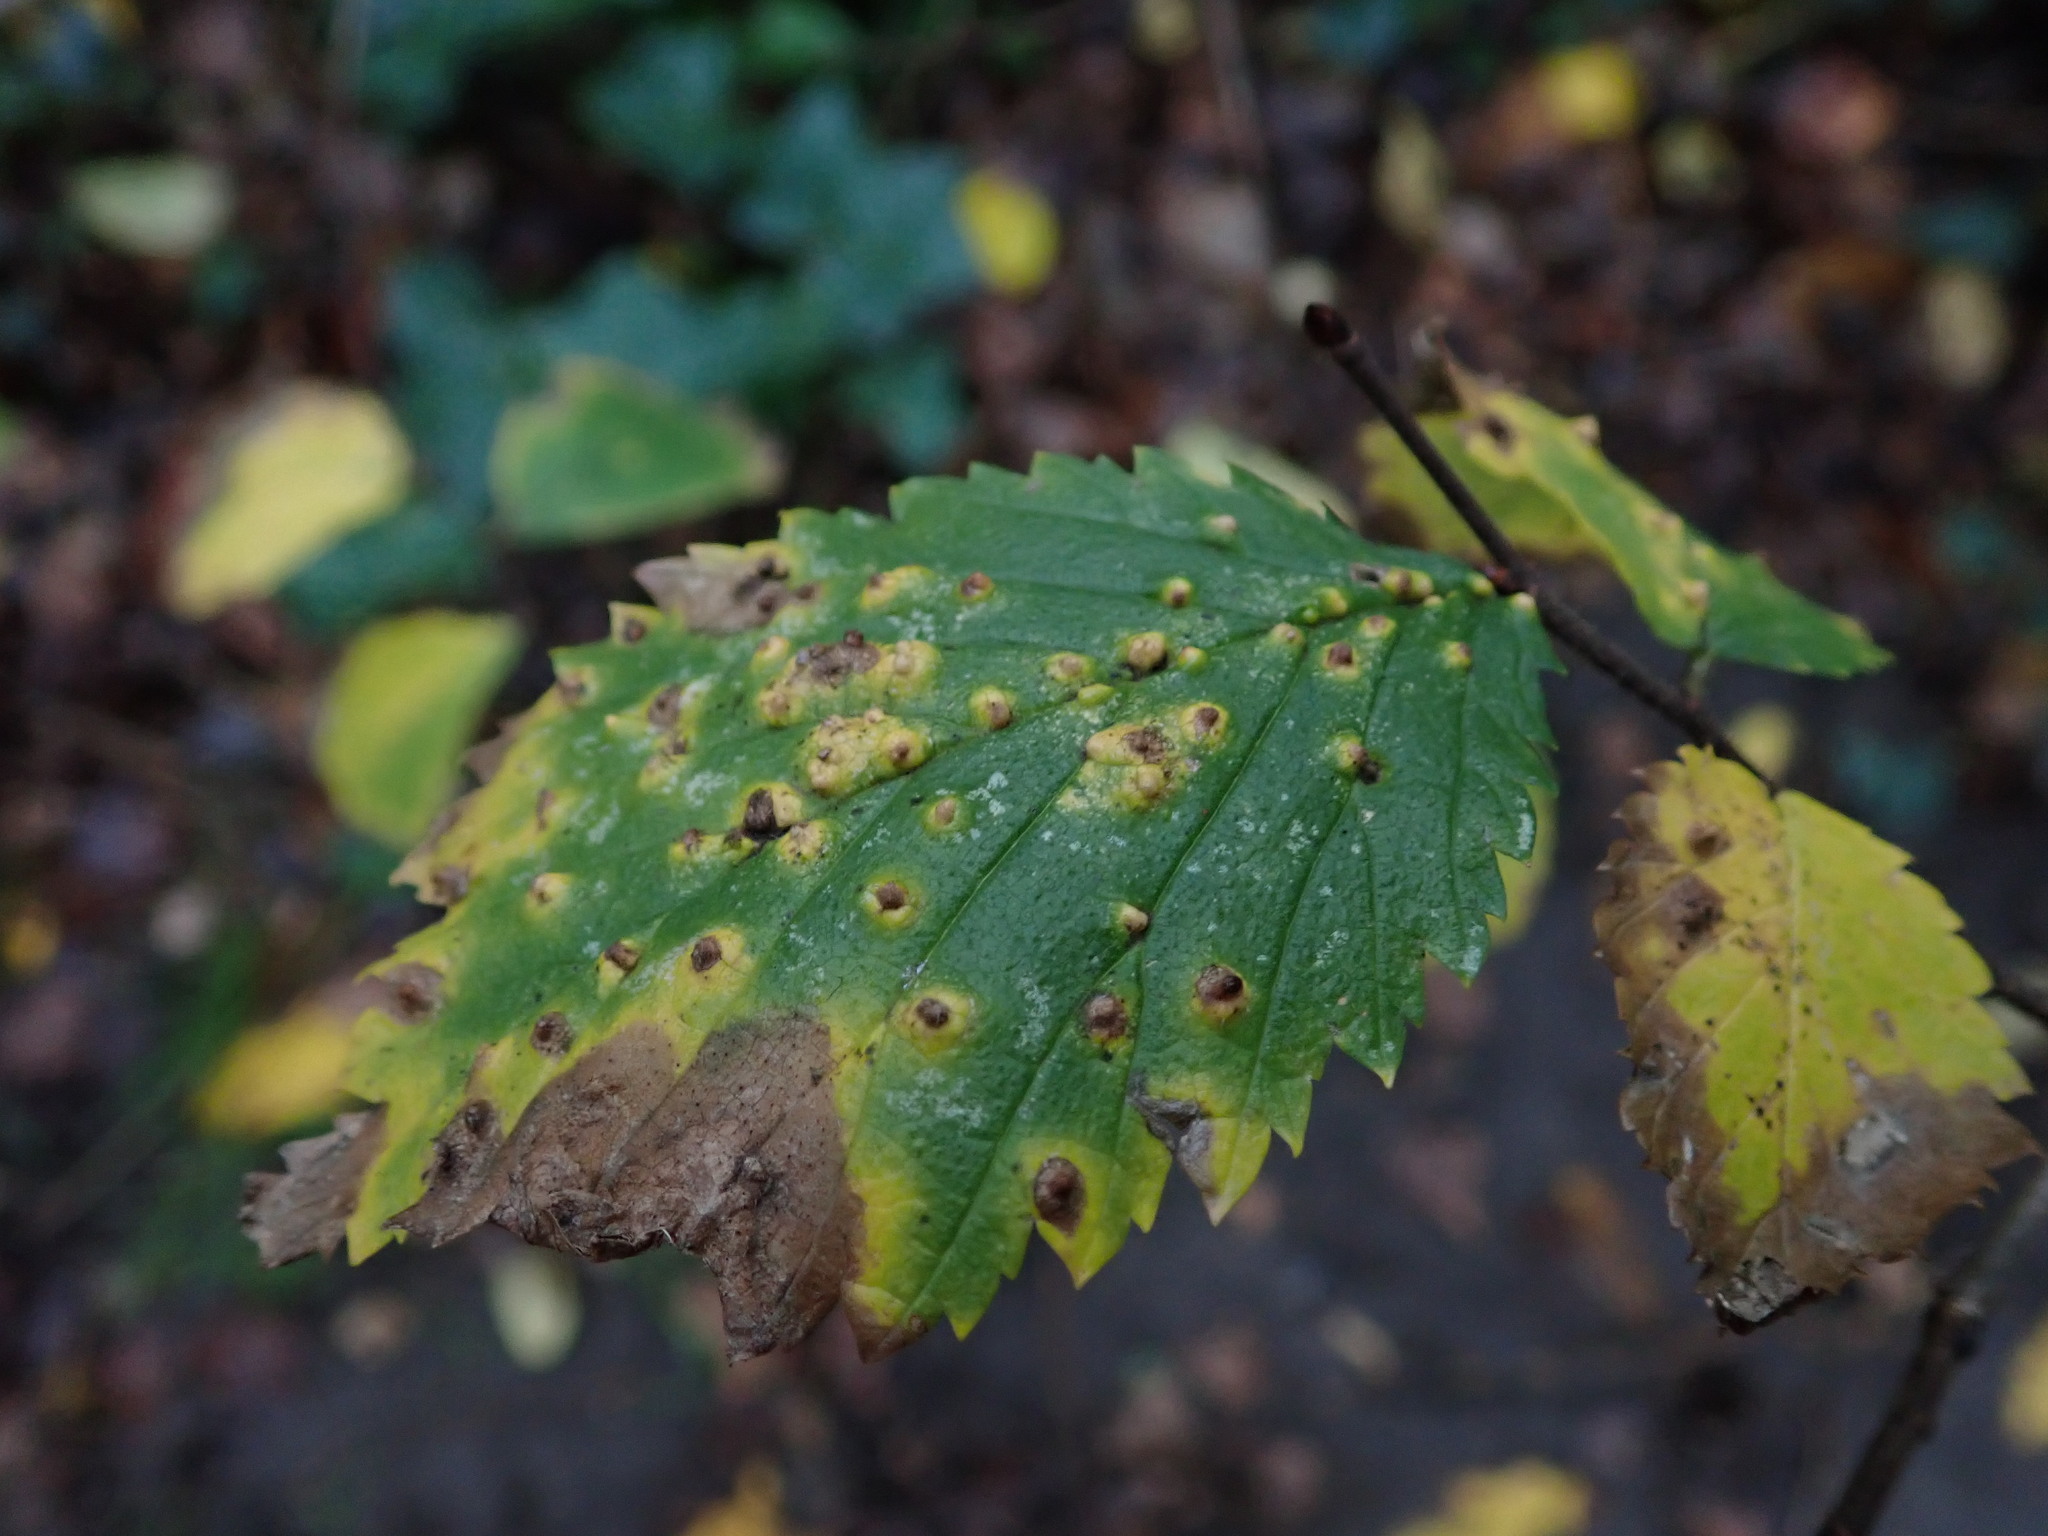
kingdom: Animalia
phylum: Arthropoda
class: Arachnida
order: Trombidiformes
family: Eriophyidae
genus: Aceria
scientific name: Aceria brevipunctata
